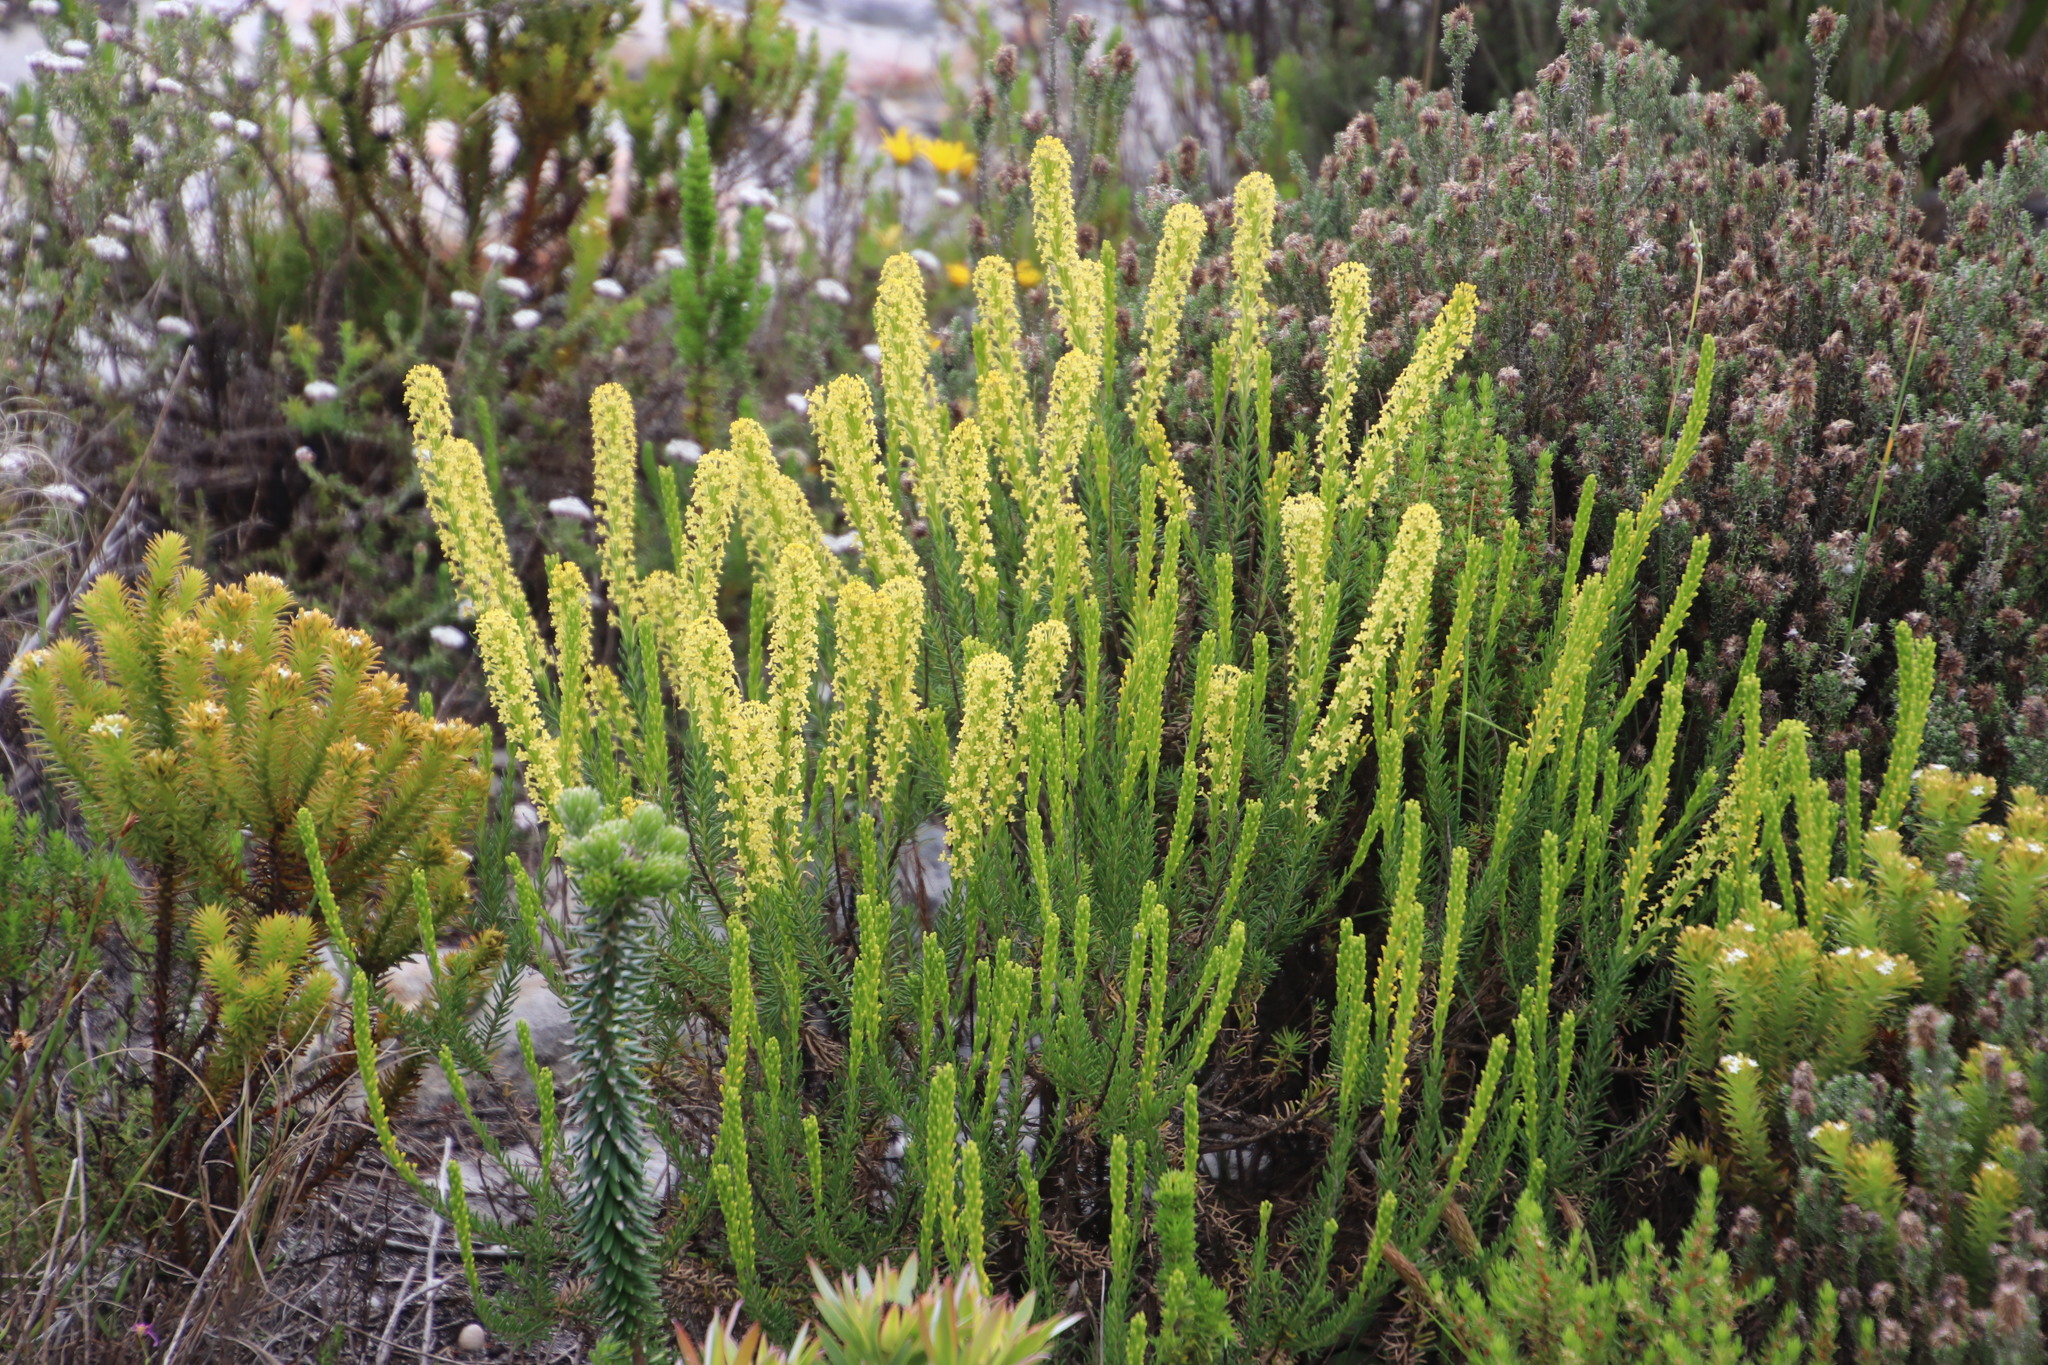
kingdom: Plantae
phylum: Tracheophyta
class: Magnoliopsida
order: Lamiales
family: Scrophulariaceae
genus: Microdon
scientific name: Microdon dubius
